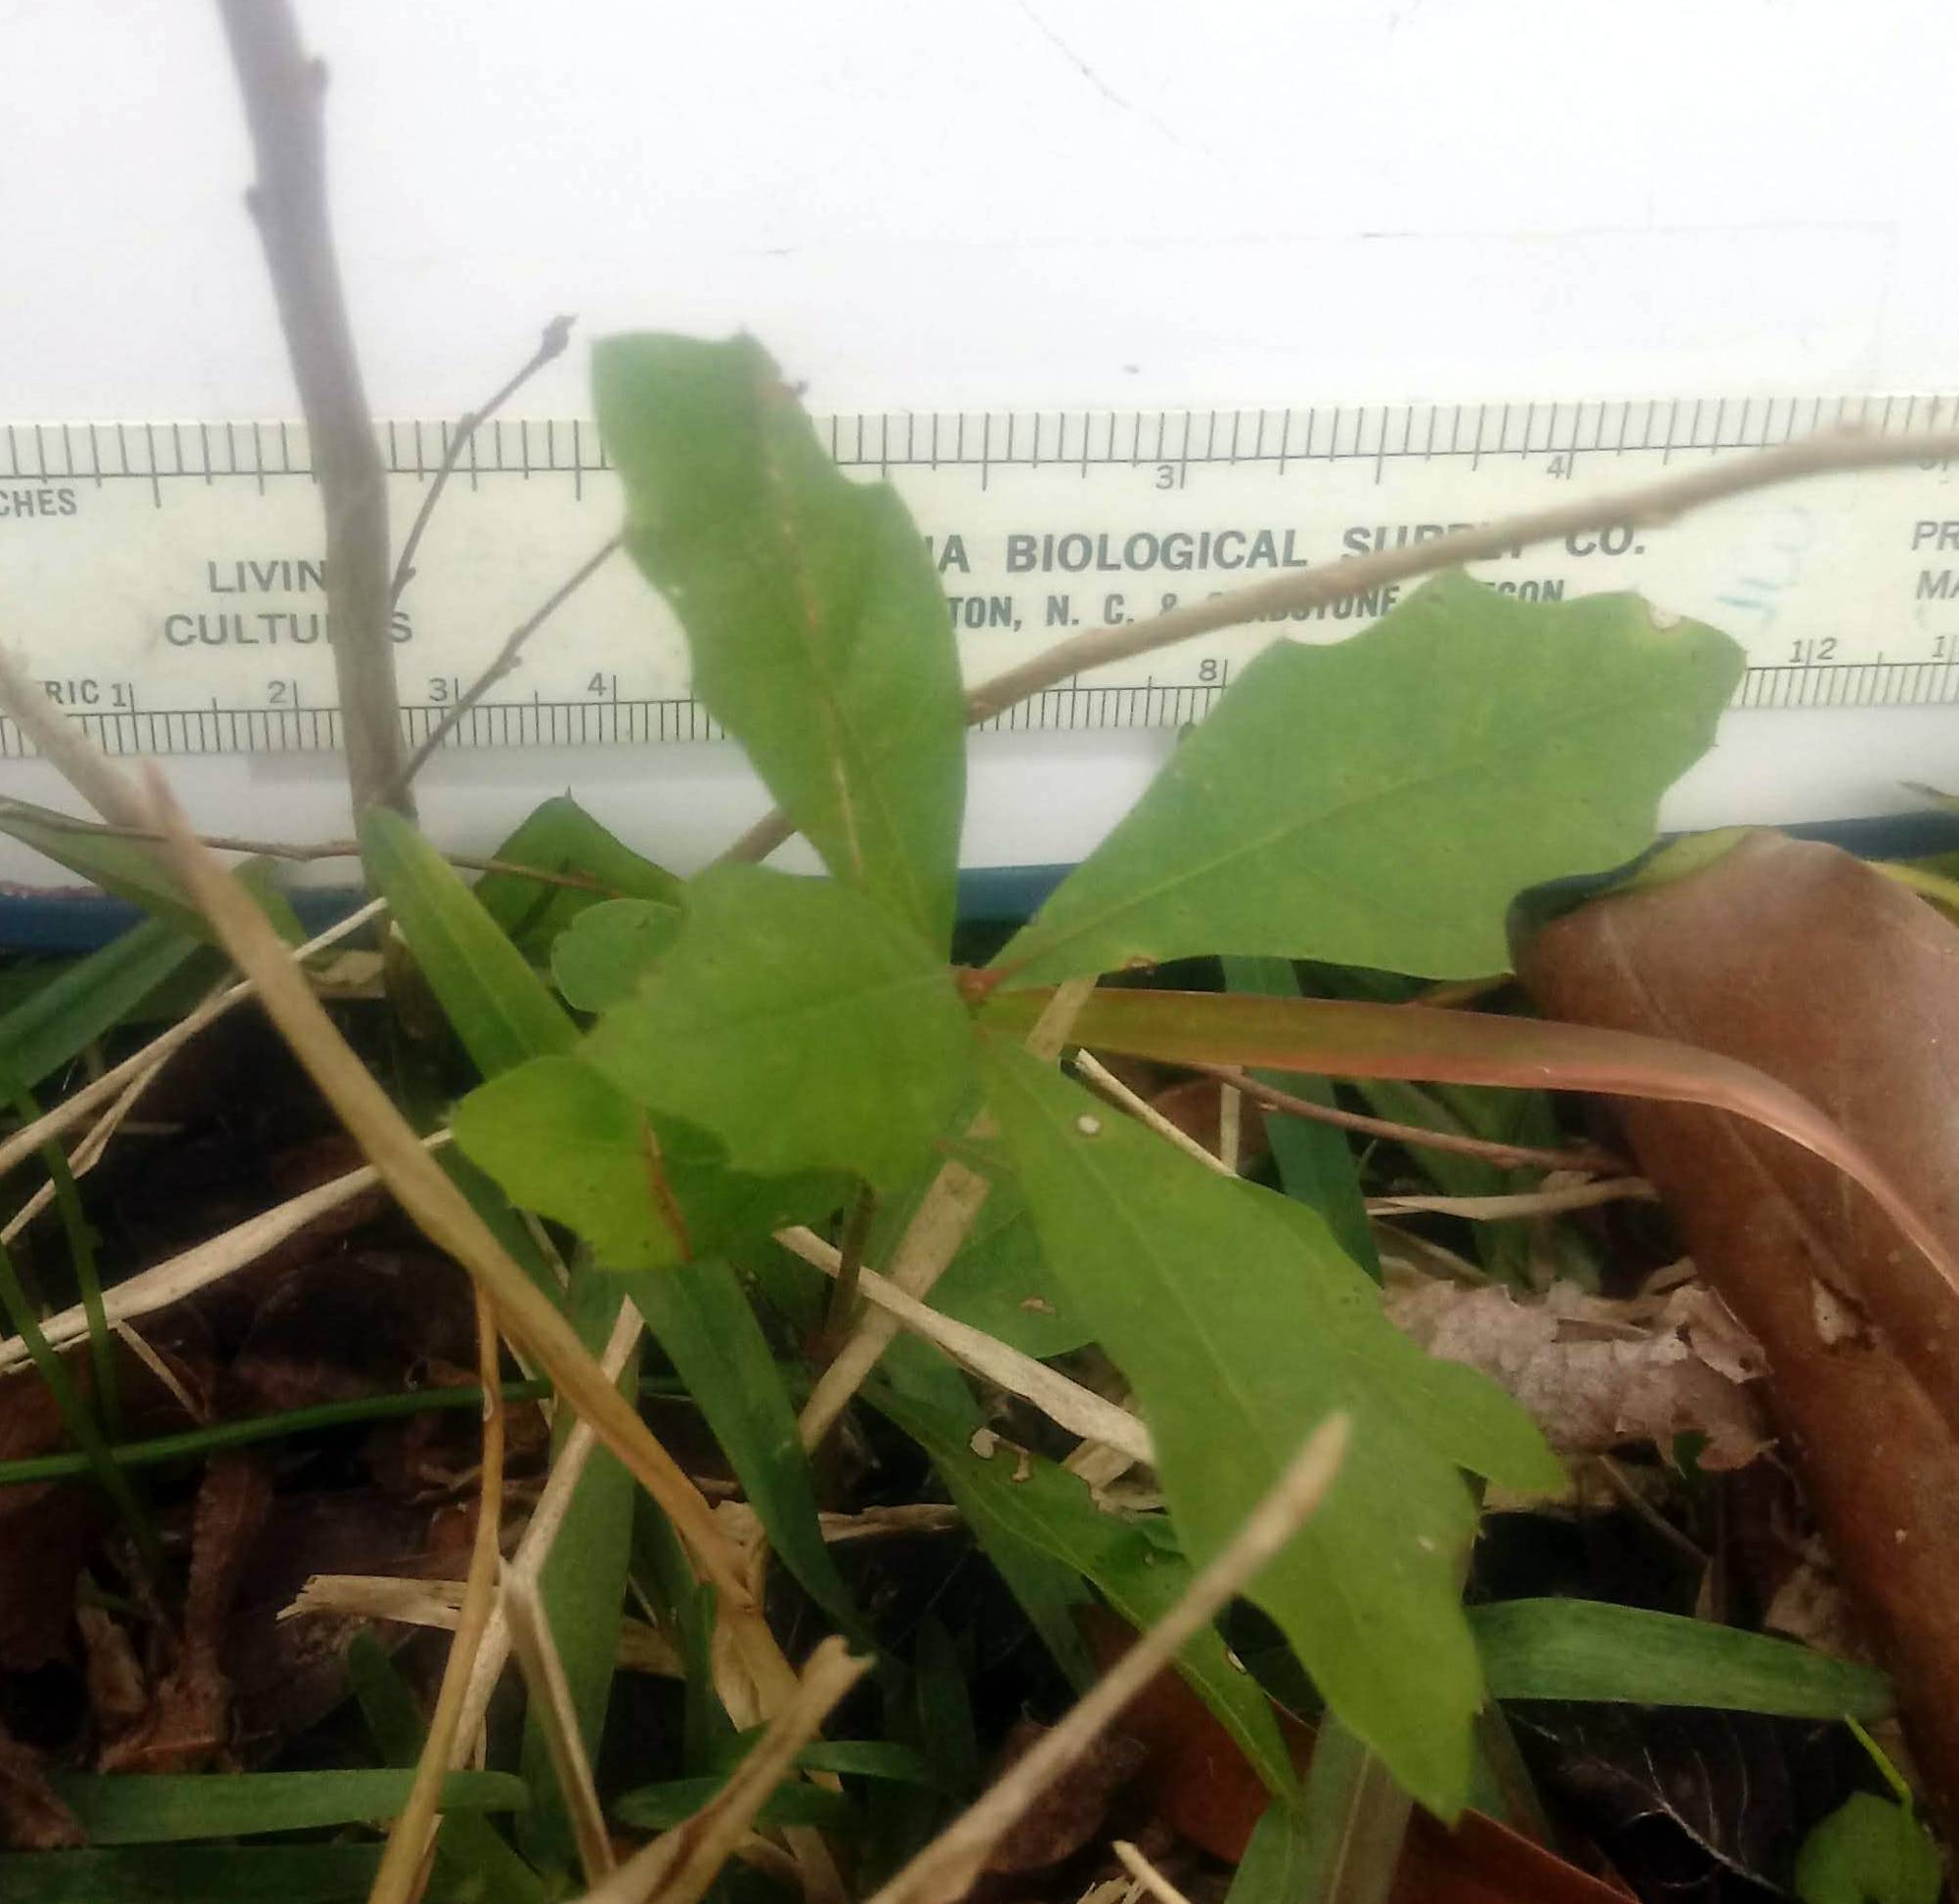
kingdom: Plantae
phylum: Tracheophyta
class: Magnoliopsida
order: Fagales
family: Fagaceae
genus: Quercus
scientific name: Quercus nigra
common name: Water oak
